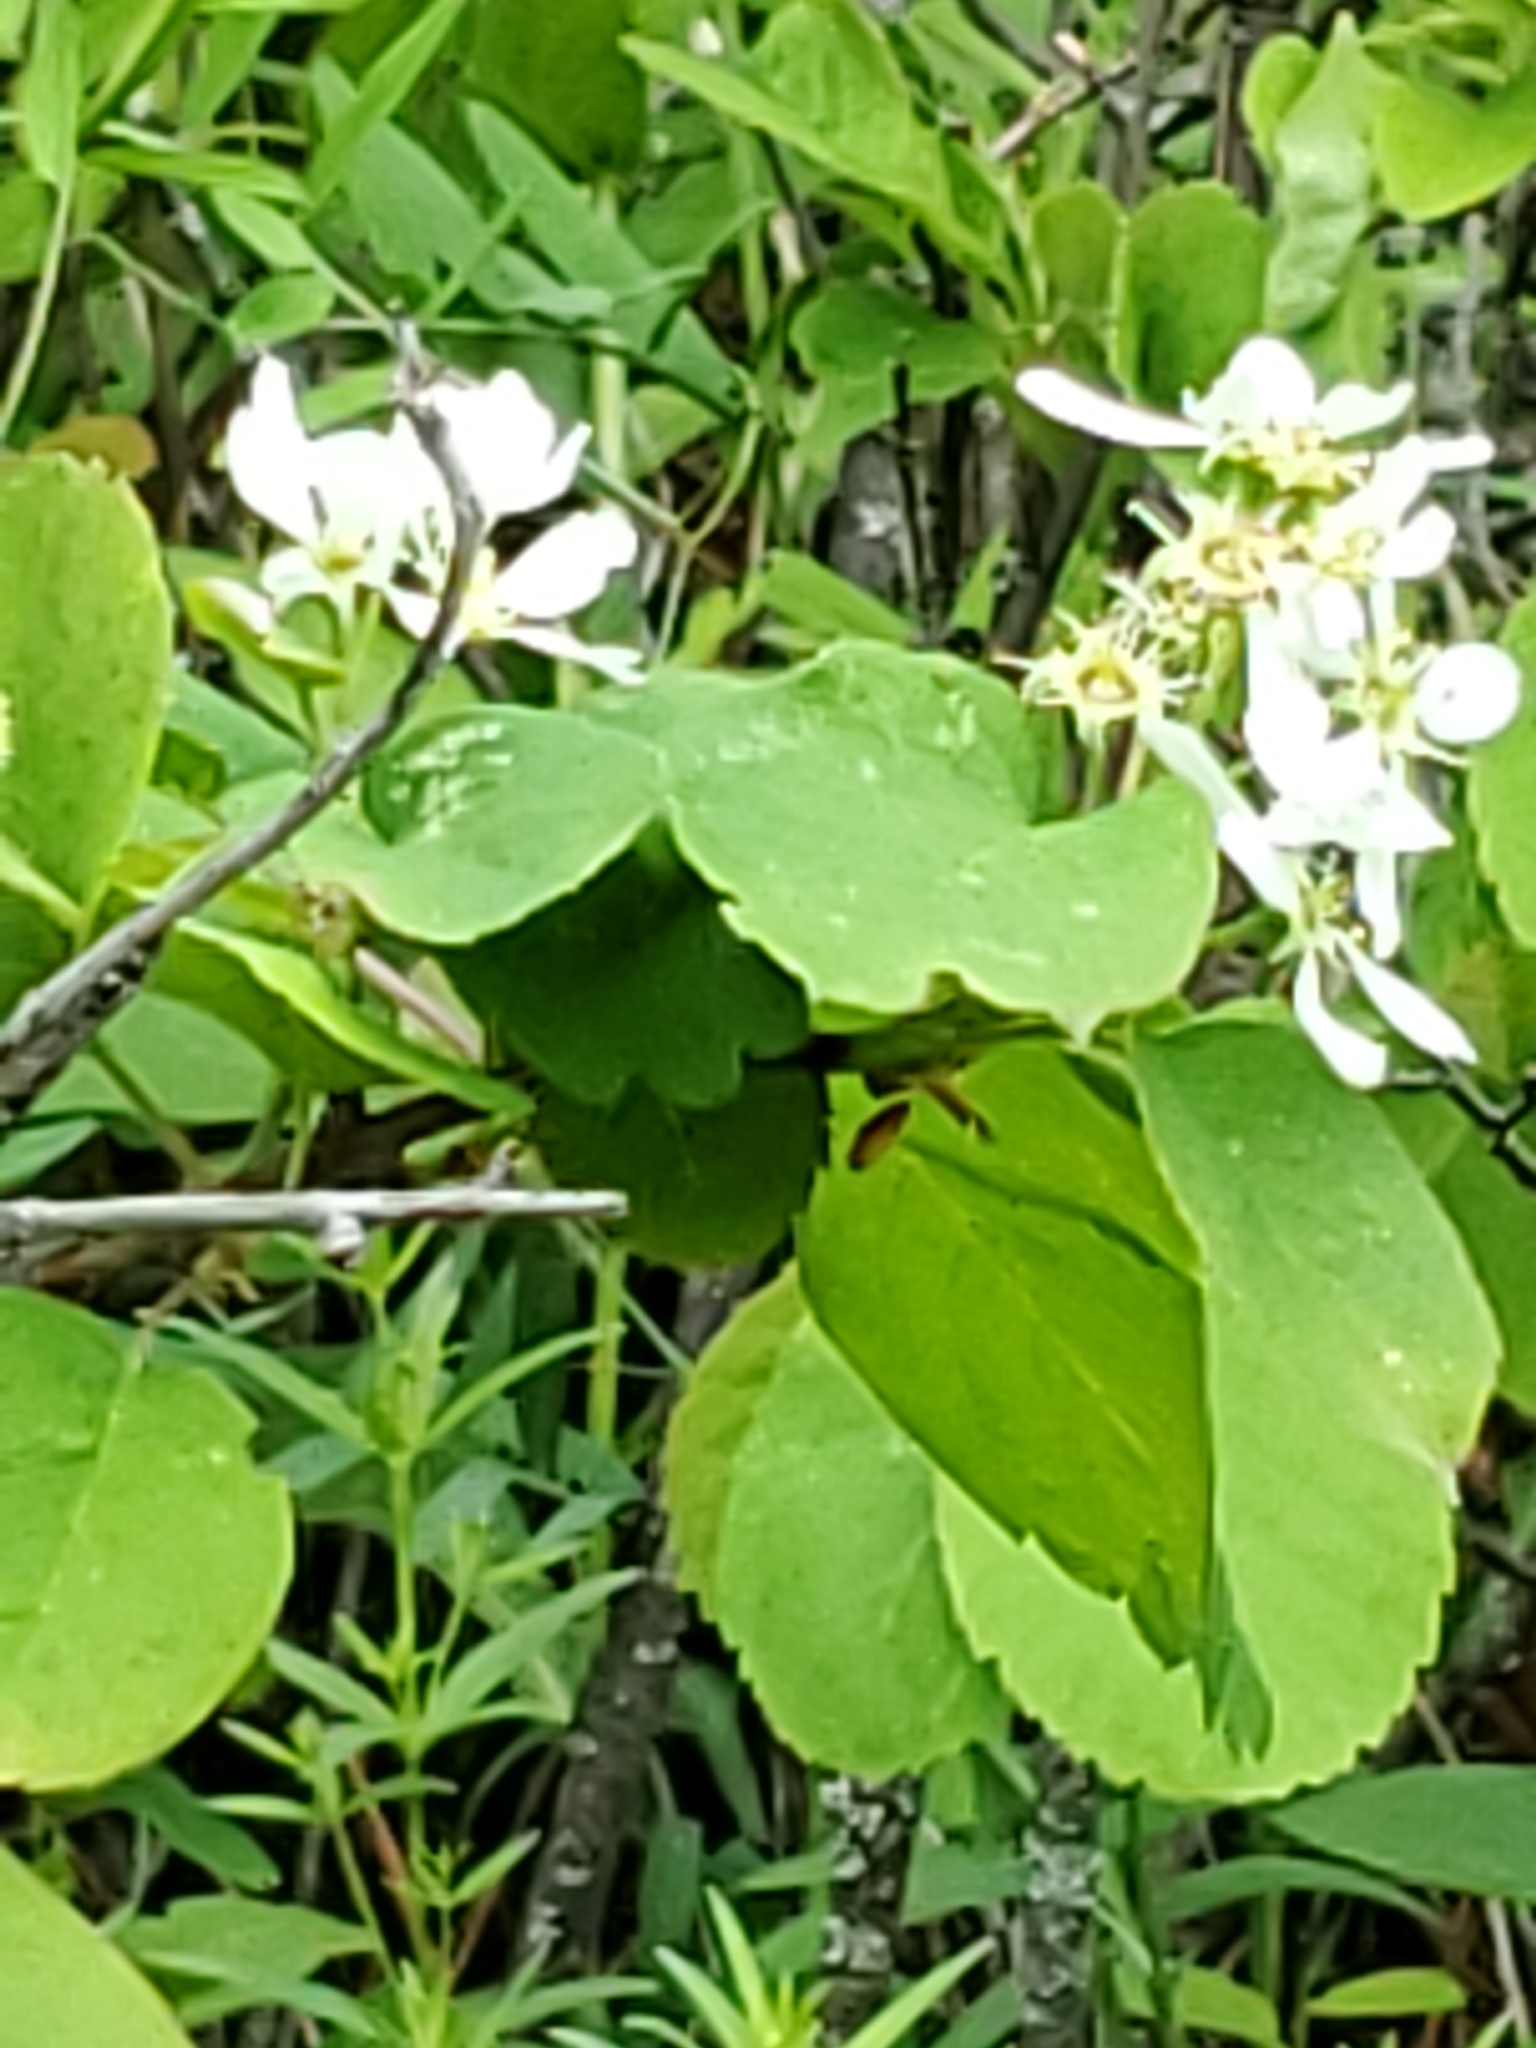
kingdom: Plantae
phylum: Tracheophyta
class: Magnoliopsida
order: Rosales
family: Rosaceae
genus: Amelanchier
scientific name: Amelanchier alnifolia
